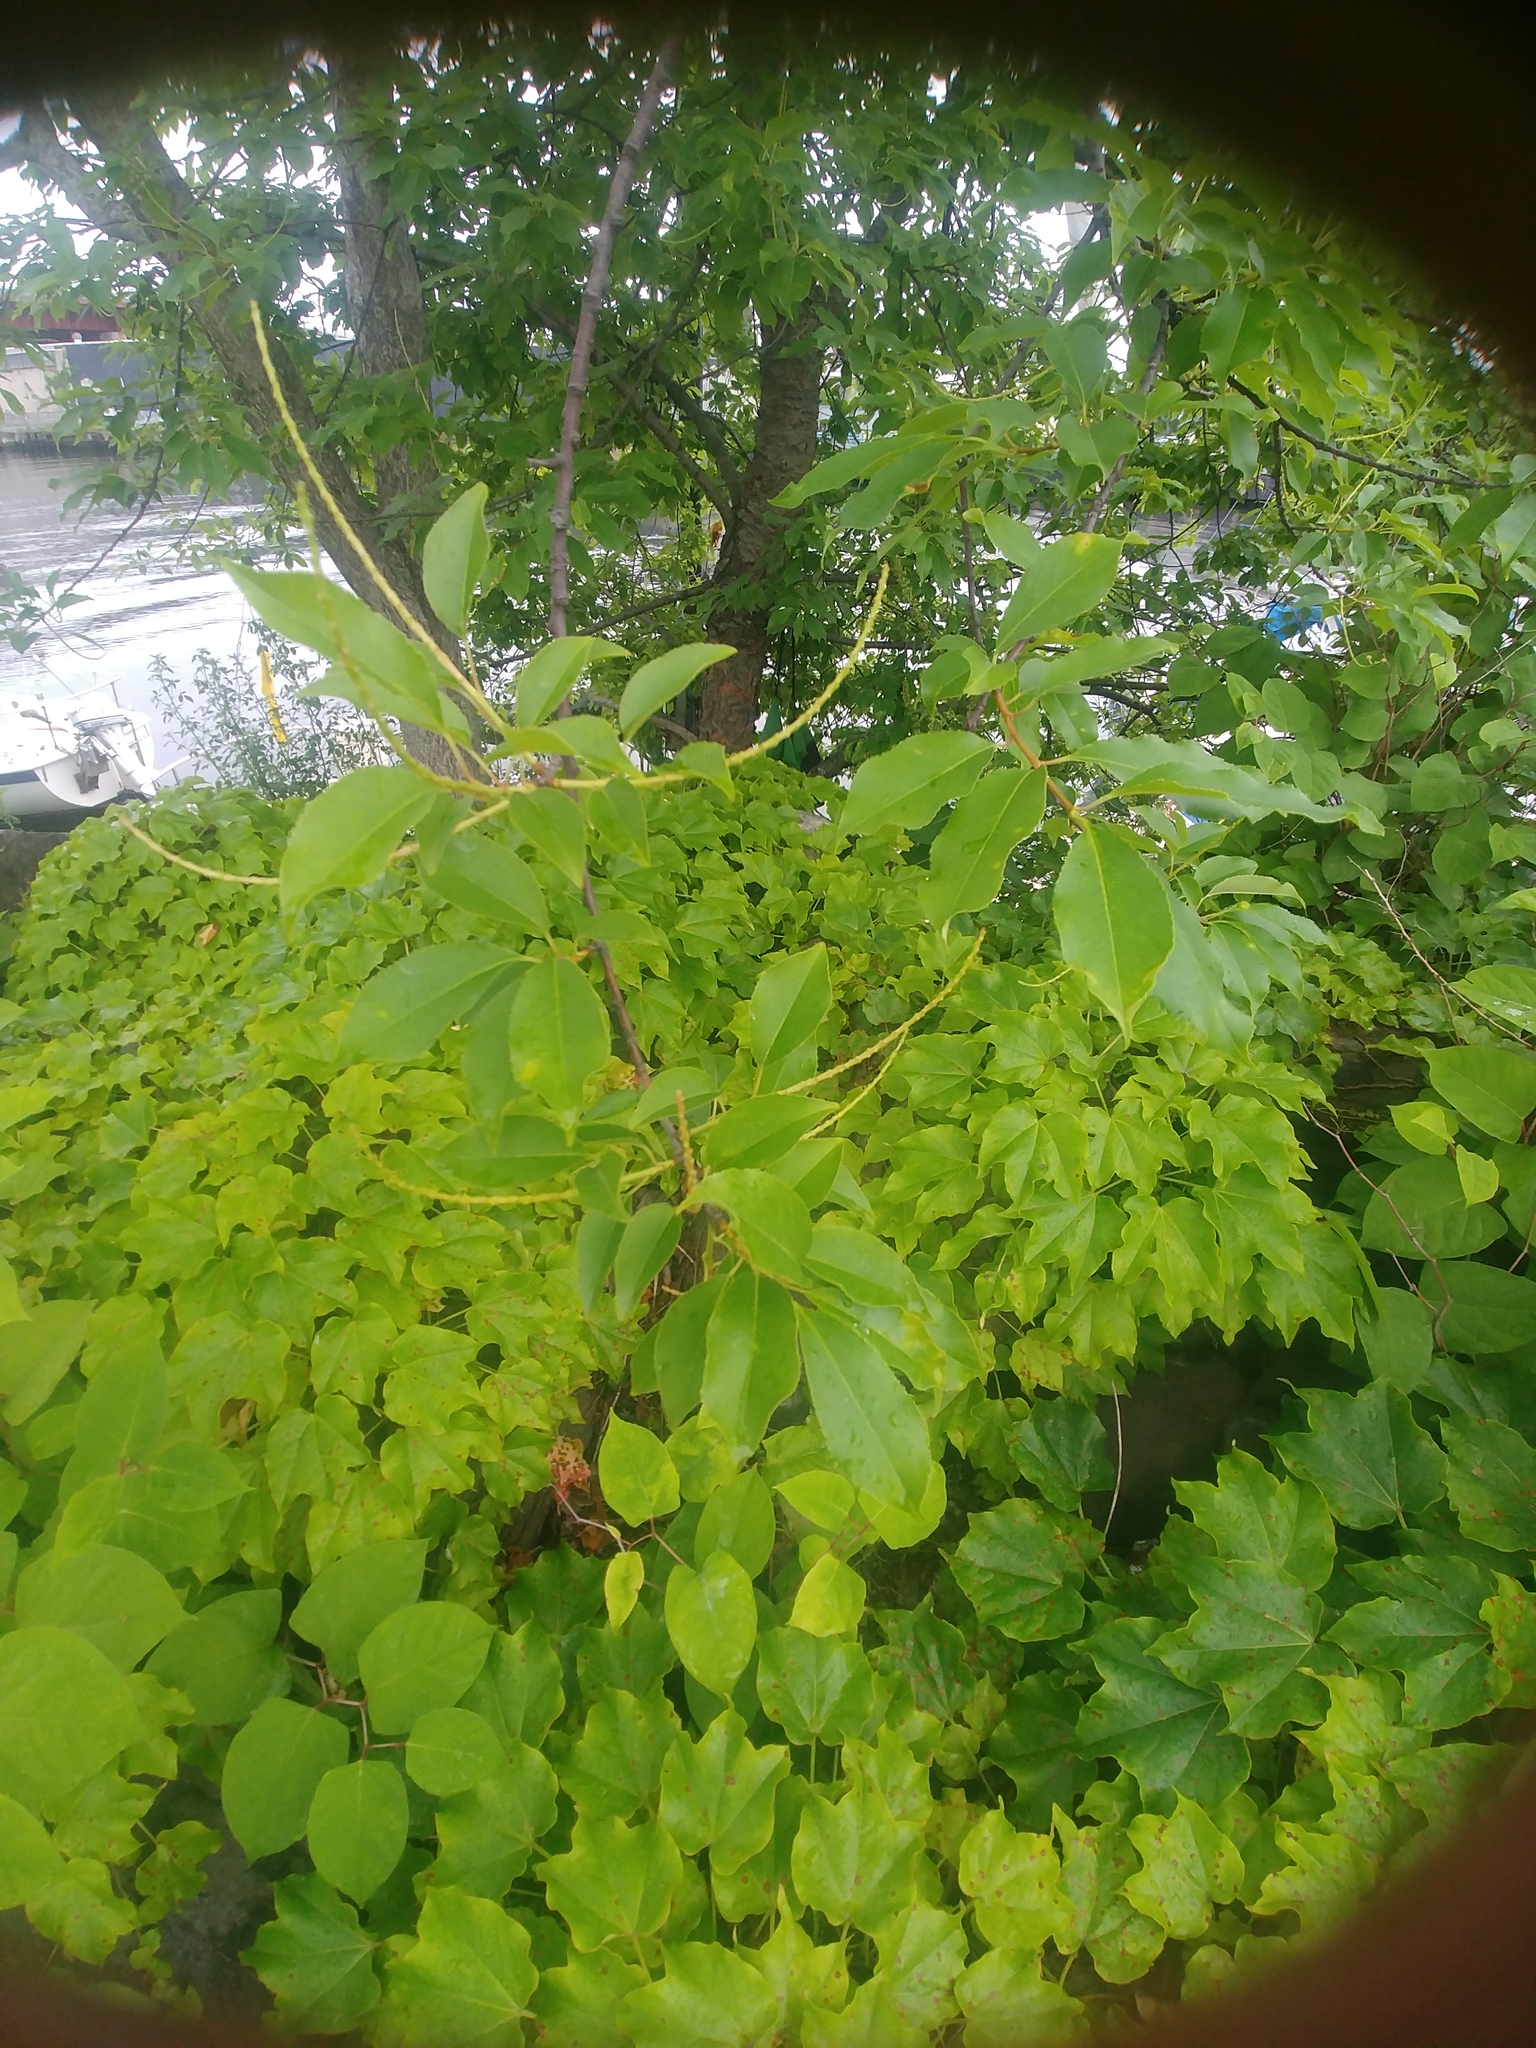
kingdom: Plantae
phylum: Tracheophyta
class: Magnoliopsida
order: Rosales
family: Rosaceae
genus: Prunus
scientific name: Prunus serotina
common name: Black cherry
